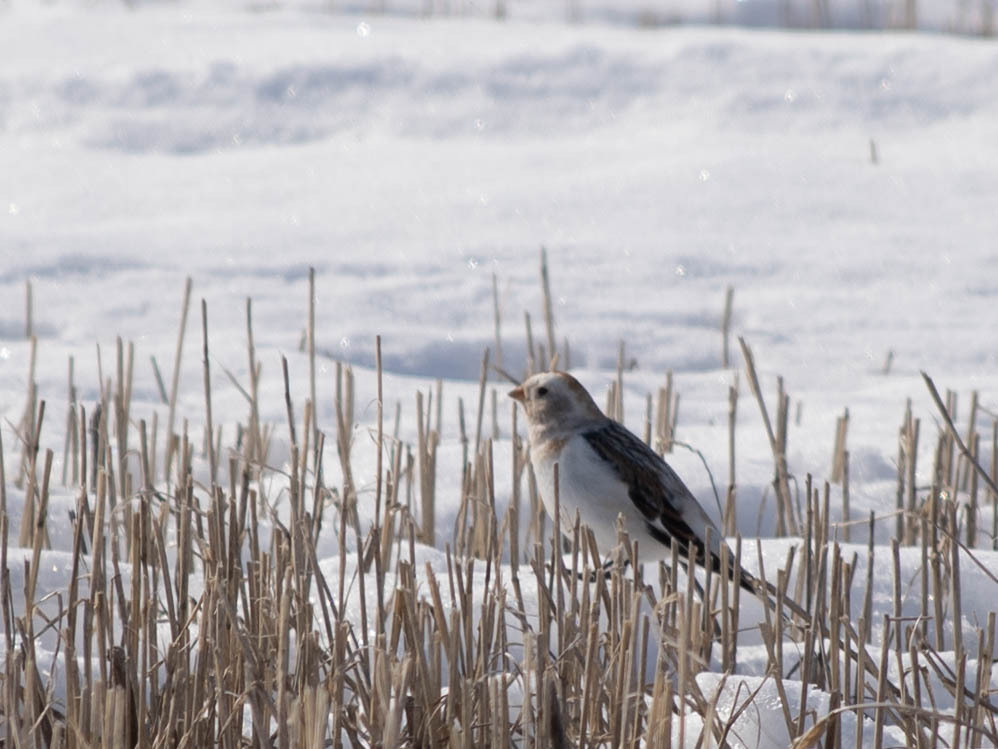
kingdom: Animalia
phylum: Chordata
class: Aves
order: Passeriformes
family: Calcariidae
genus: Plectrophenax
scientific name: Plectrophenax nivalis
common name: Snow bunting
